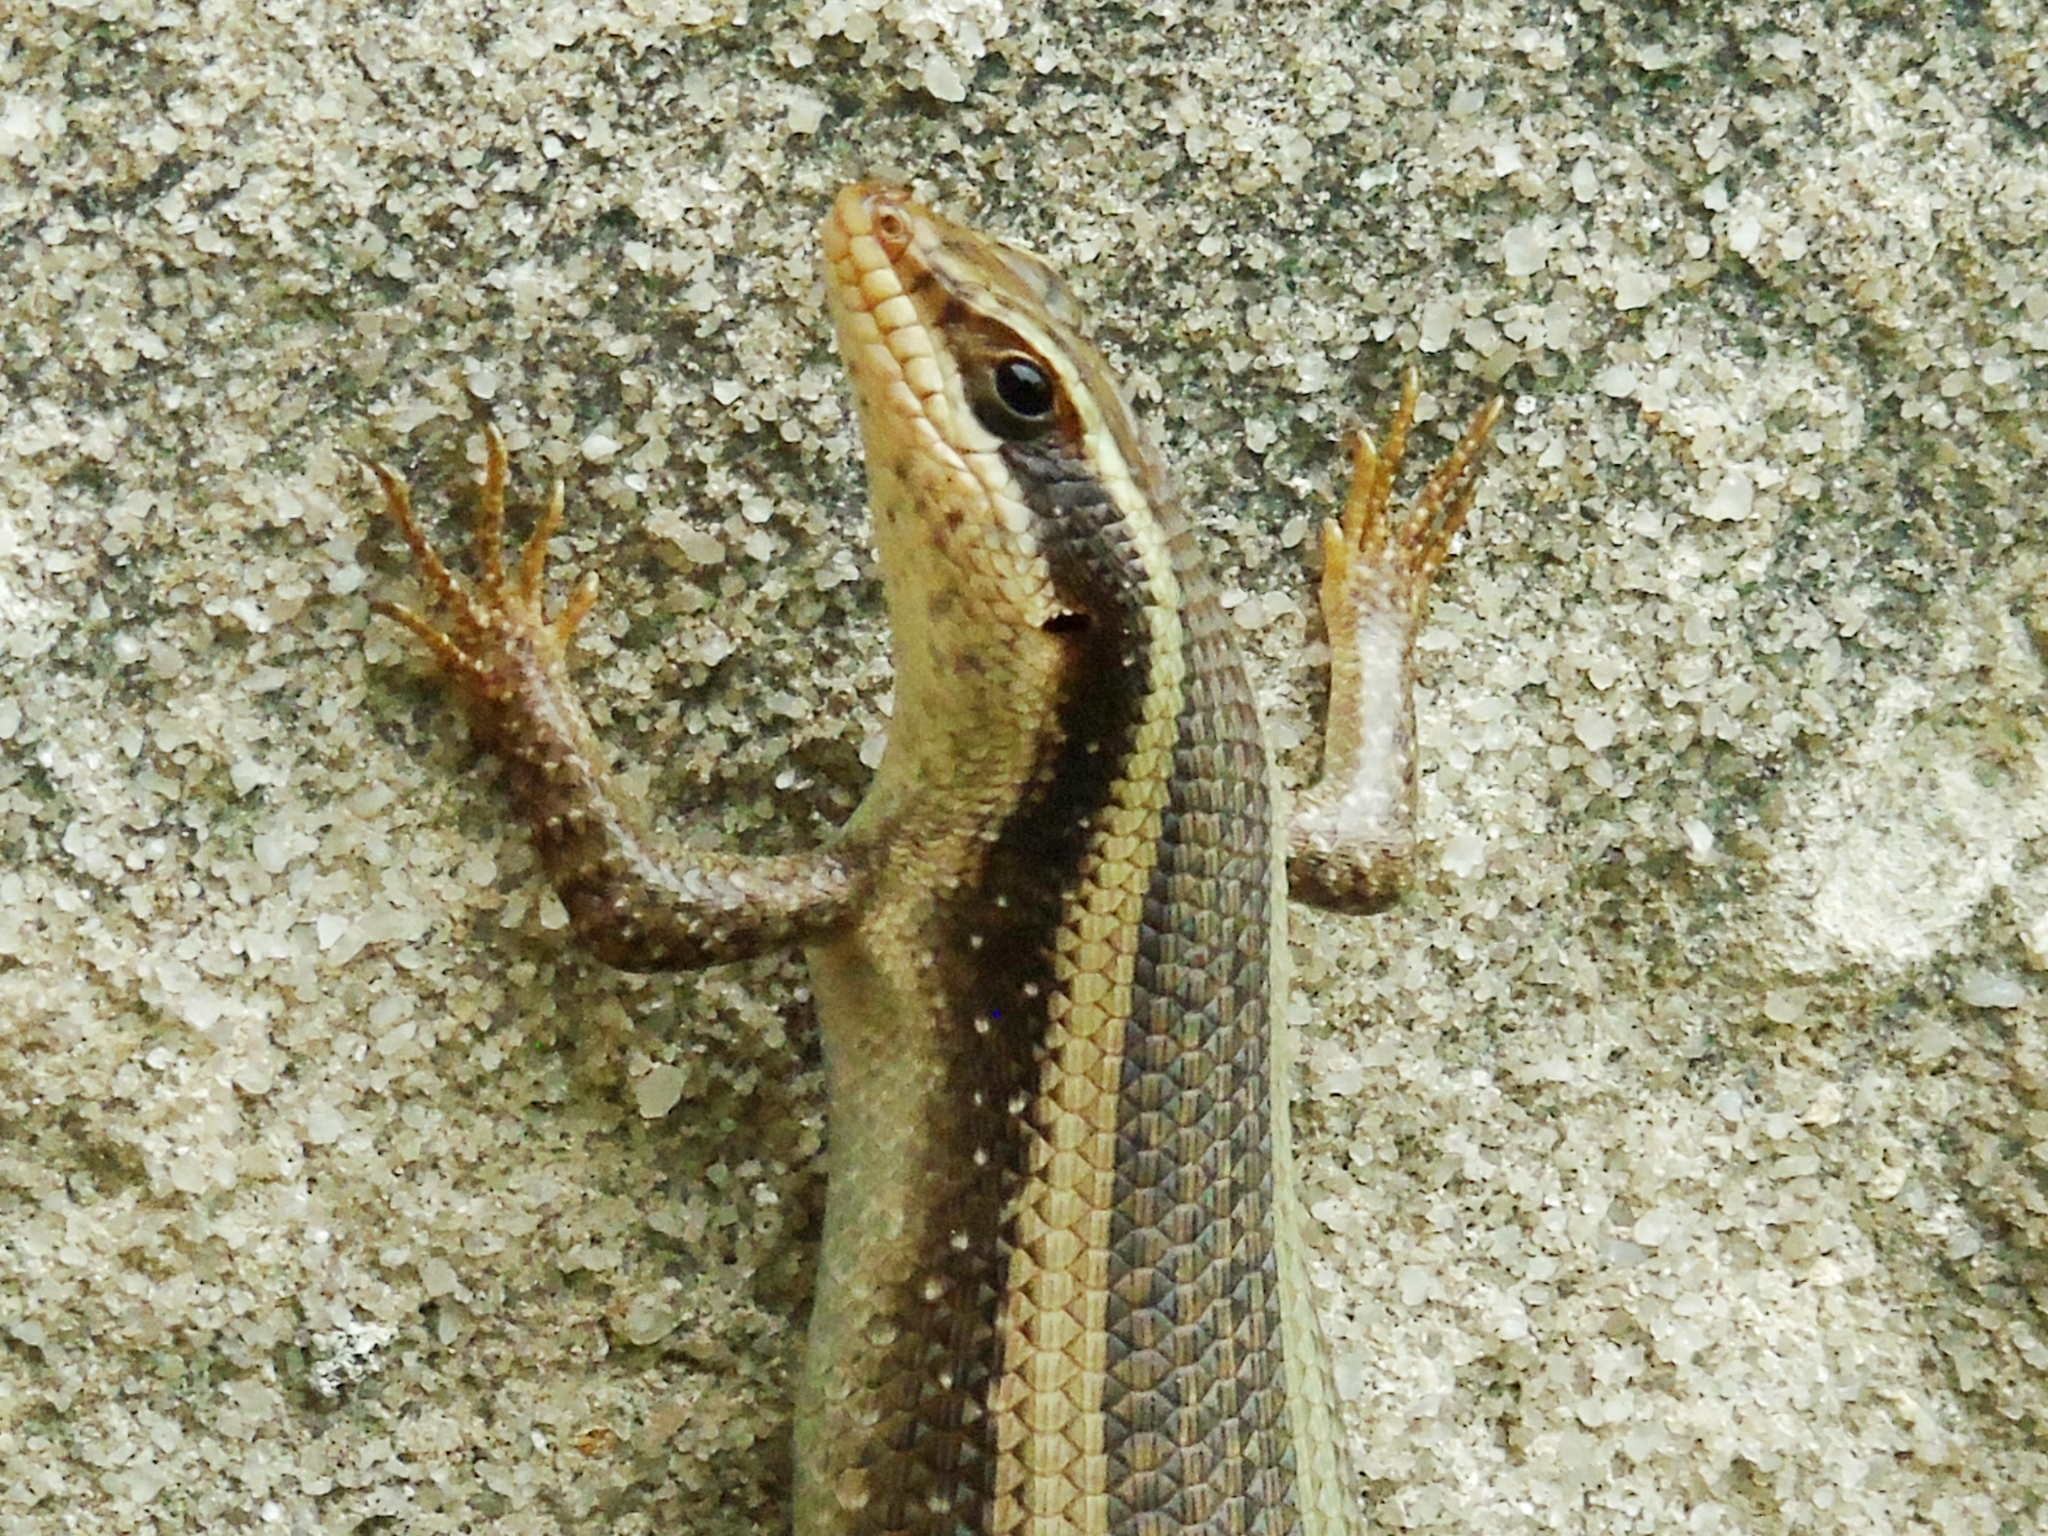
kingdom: Animalia
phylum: Chordata
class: Squamata
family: Scincidae
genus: Trachylepis
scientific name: Trachylepis striata
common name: African striped mabuya
